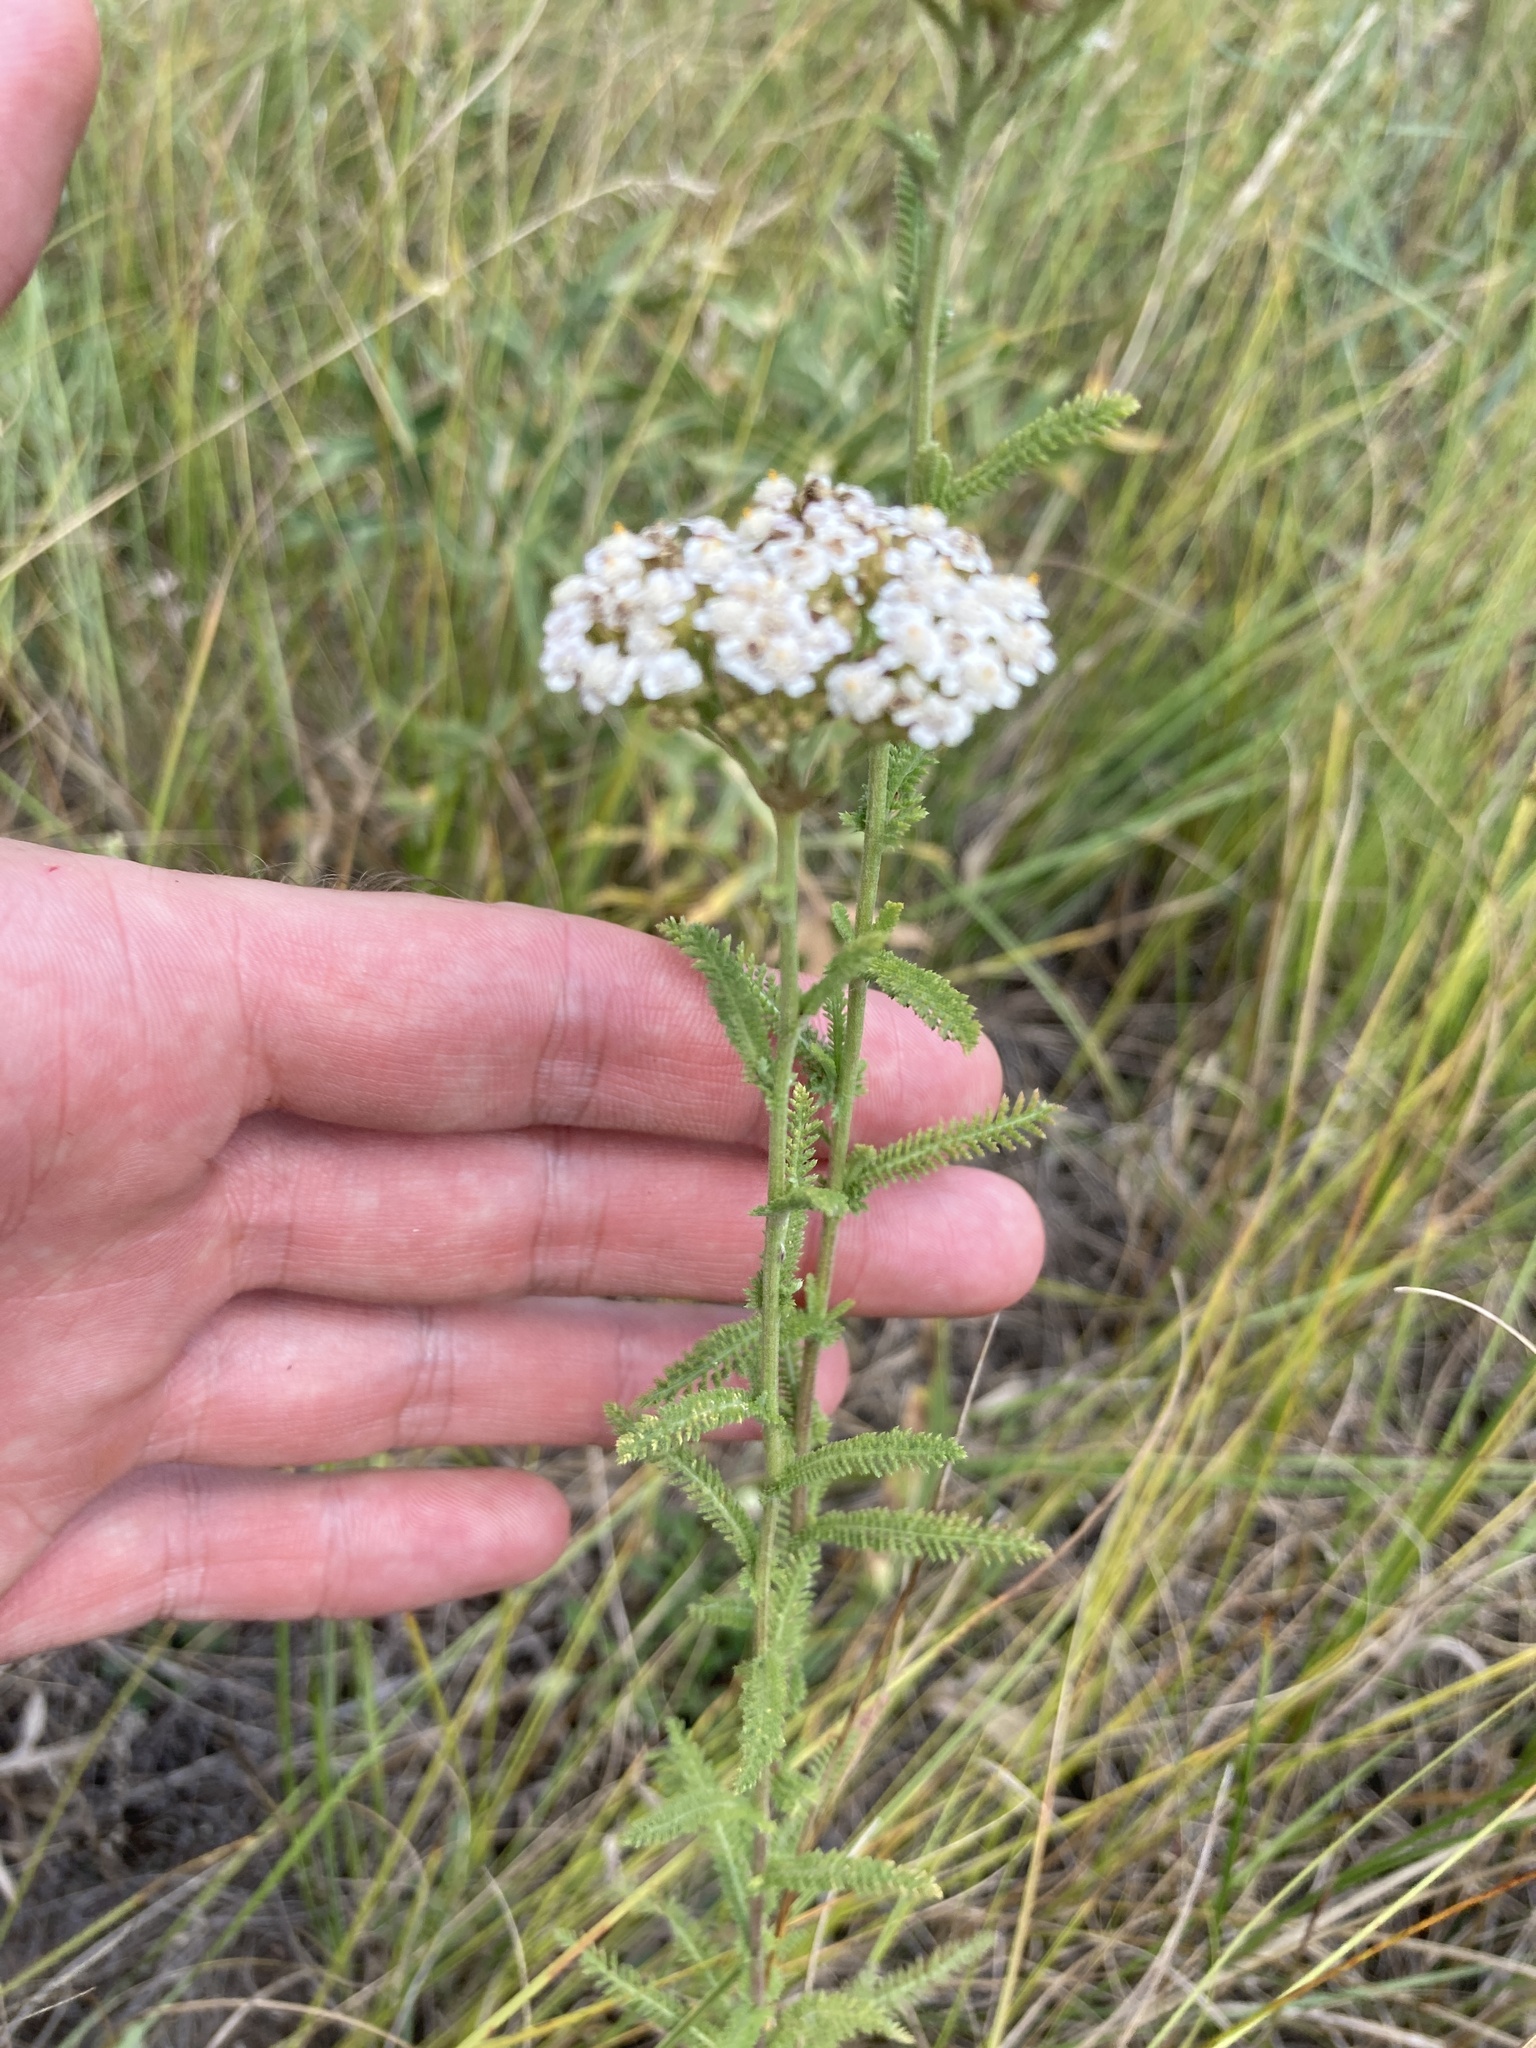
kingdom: Plantae
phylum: Tracheophyta
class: Magnoliopsida
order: Asterales
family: Asteraceae
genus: Achillea
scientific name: Achillea setacea
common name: Bristly yarrow
